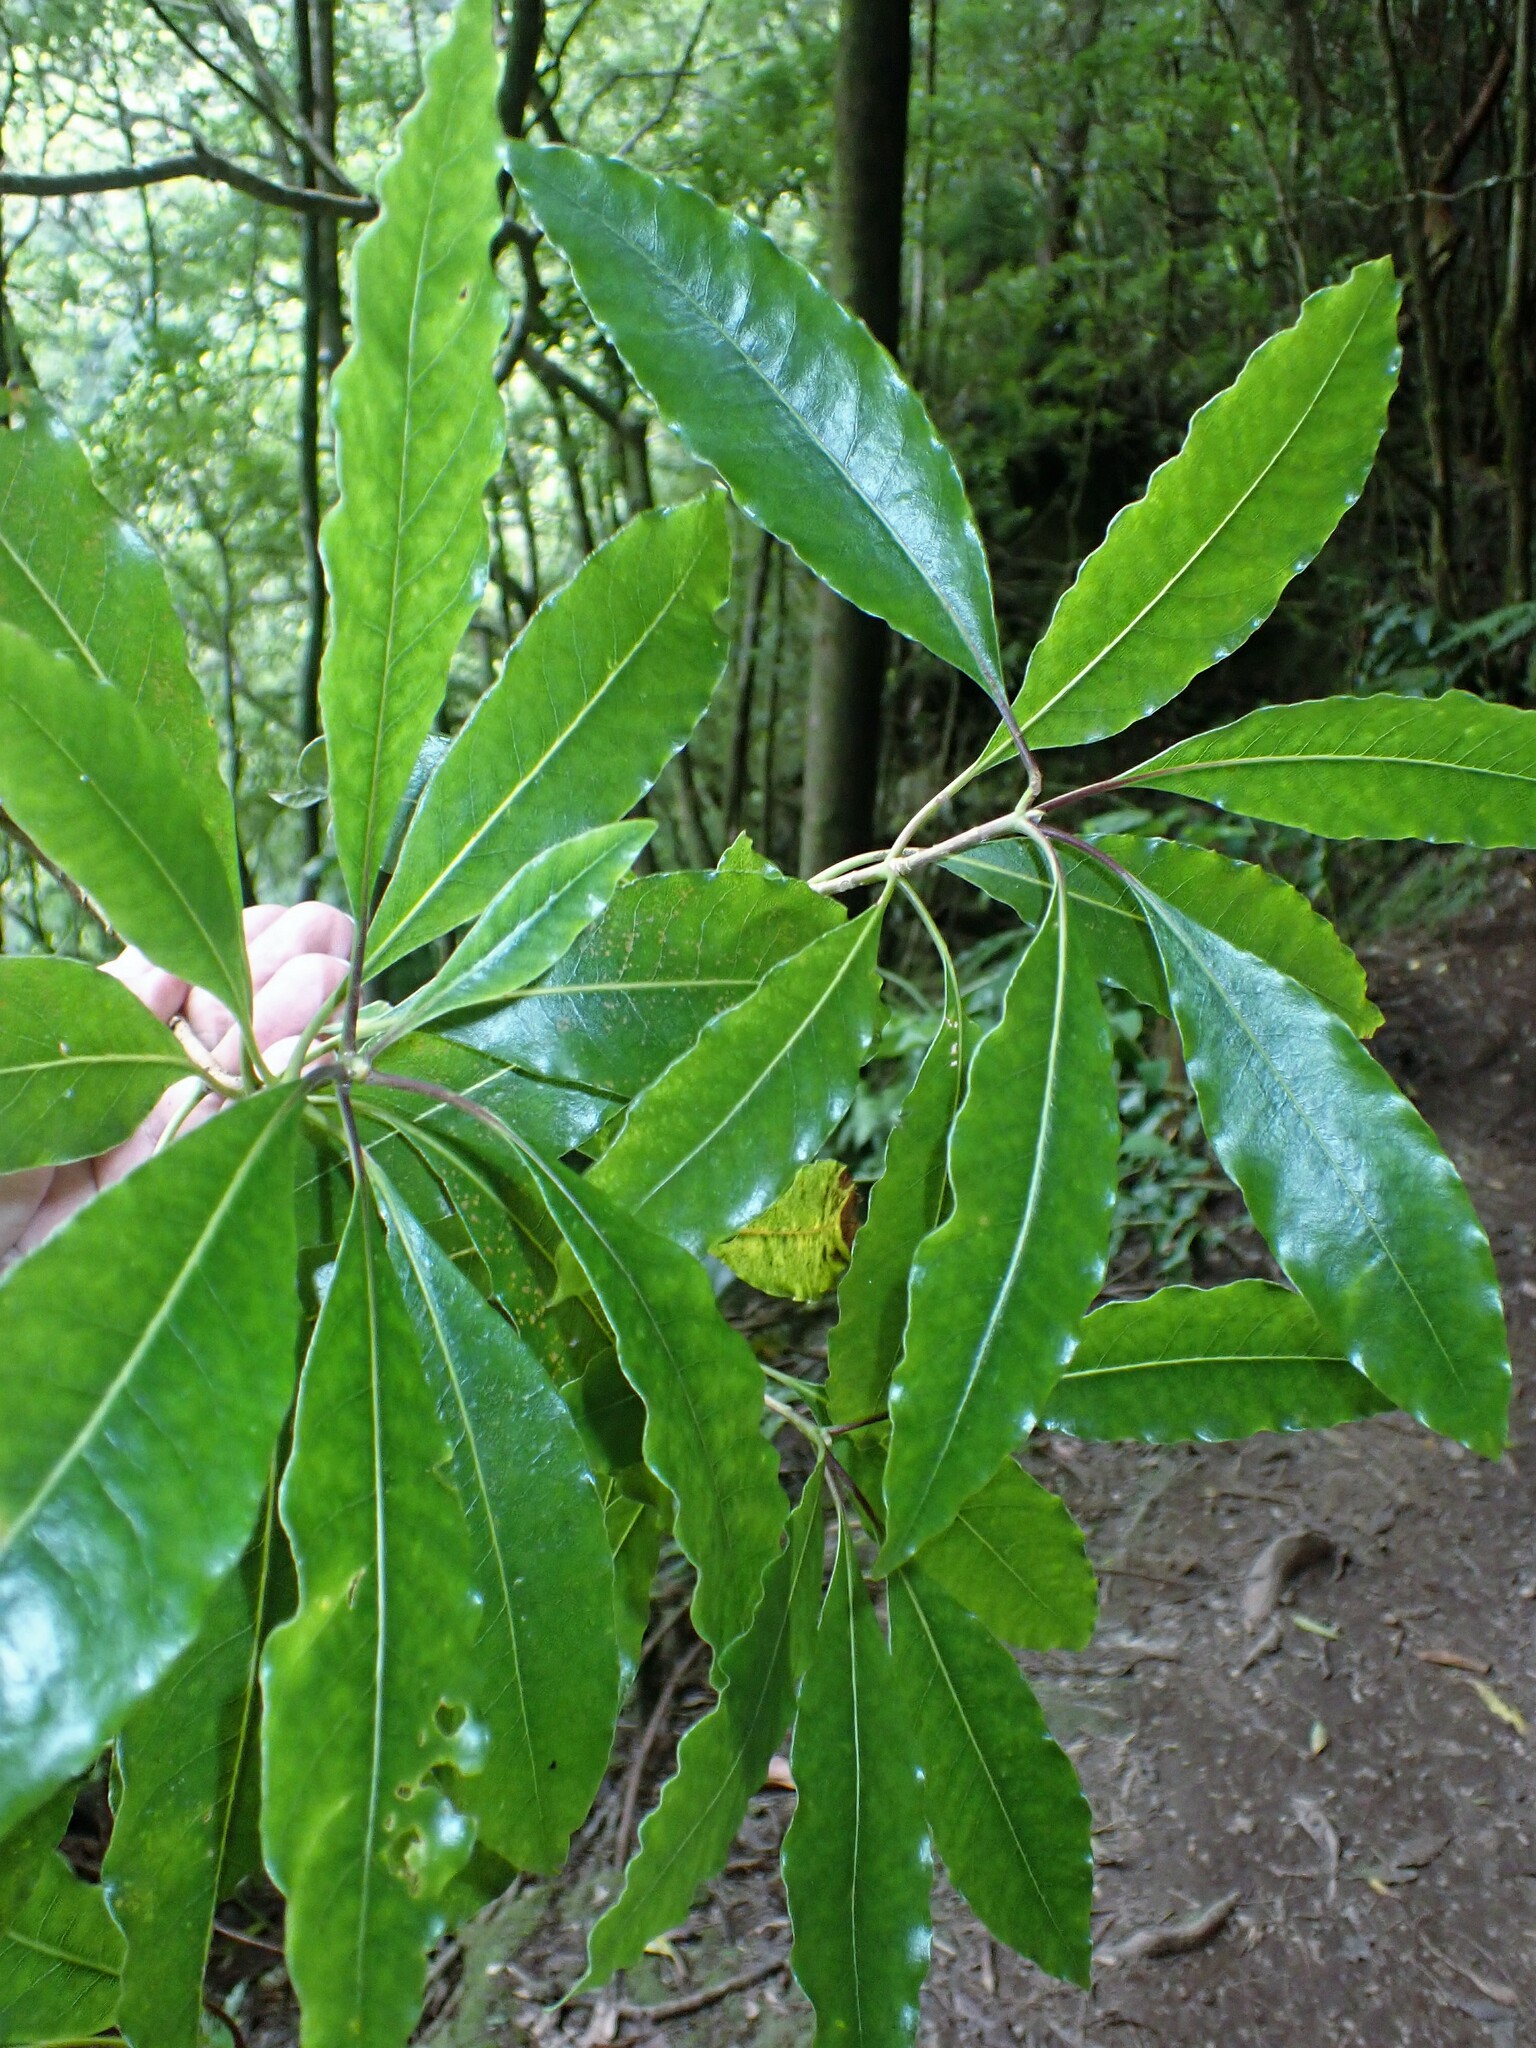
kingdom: Plantae
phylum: Tracheophyta
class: Magnoliopsida
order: Apiales
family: Pittosporaceae
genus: Pittosporum
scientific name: Pittosporum undulatum
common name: Australian cheesewood
